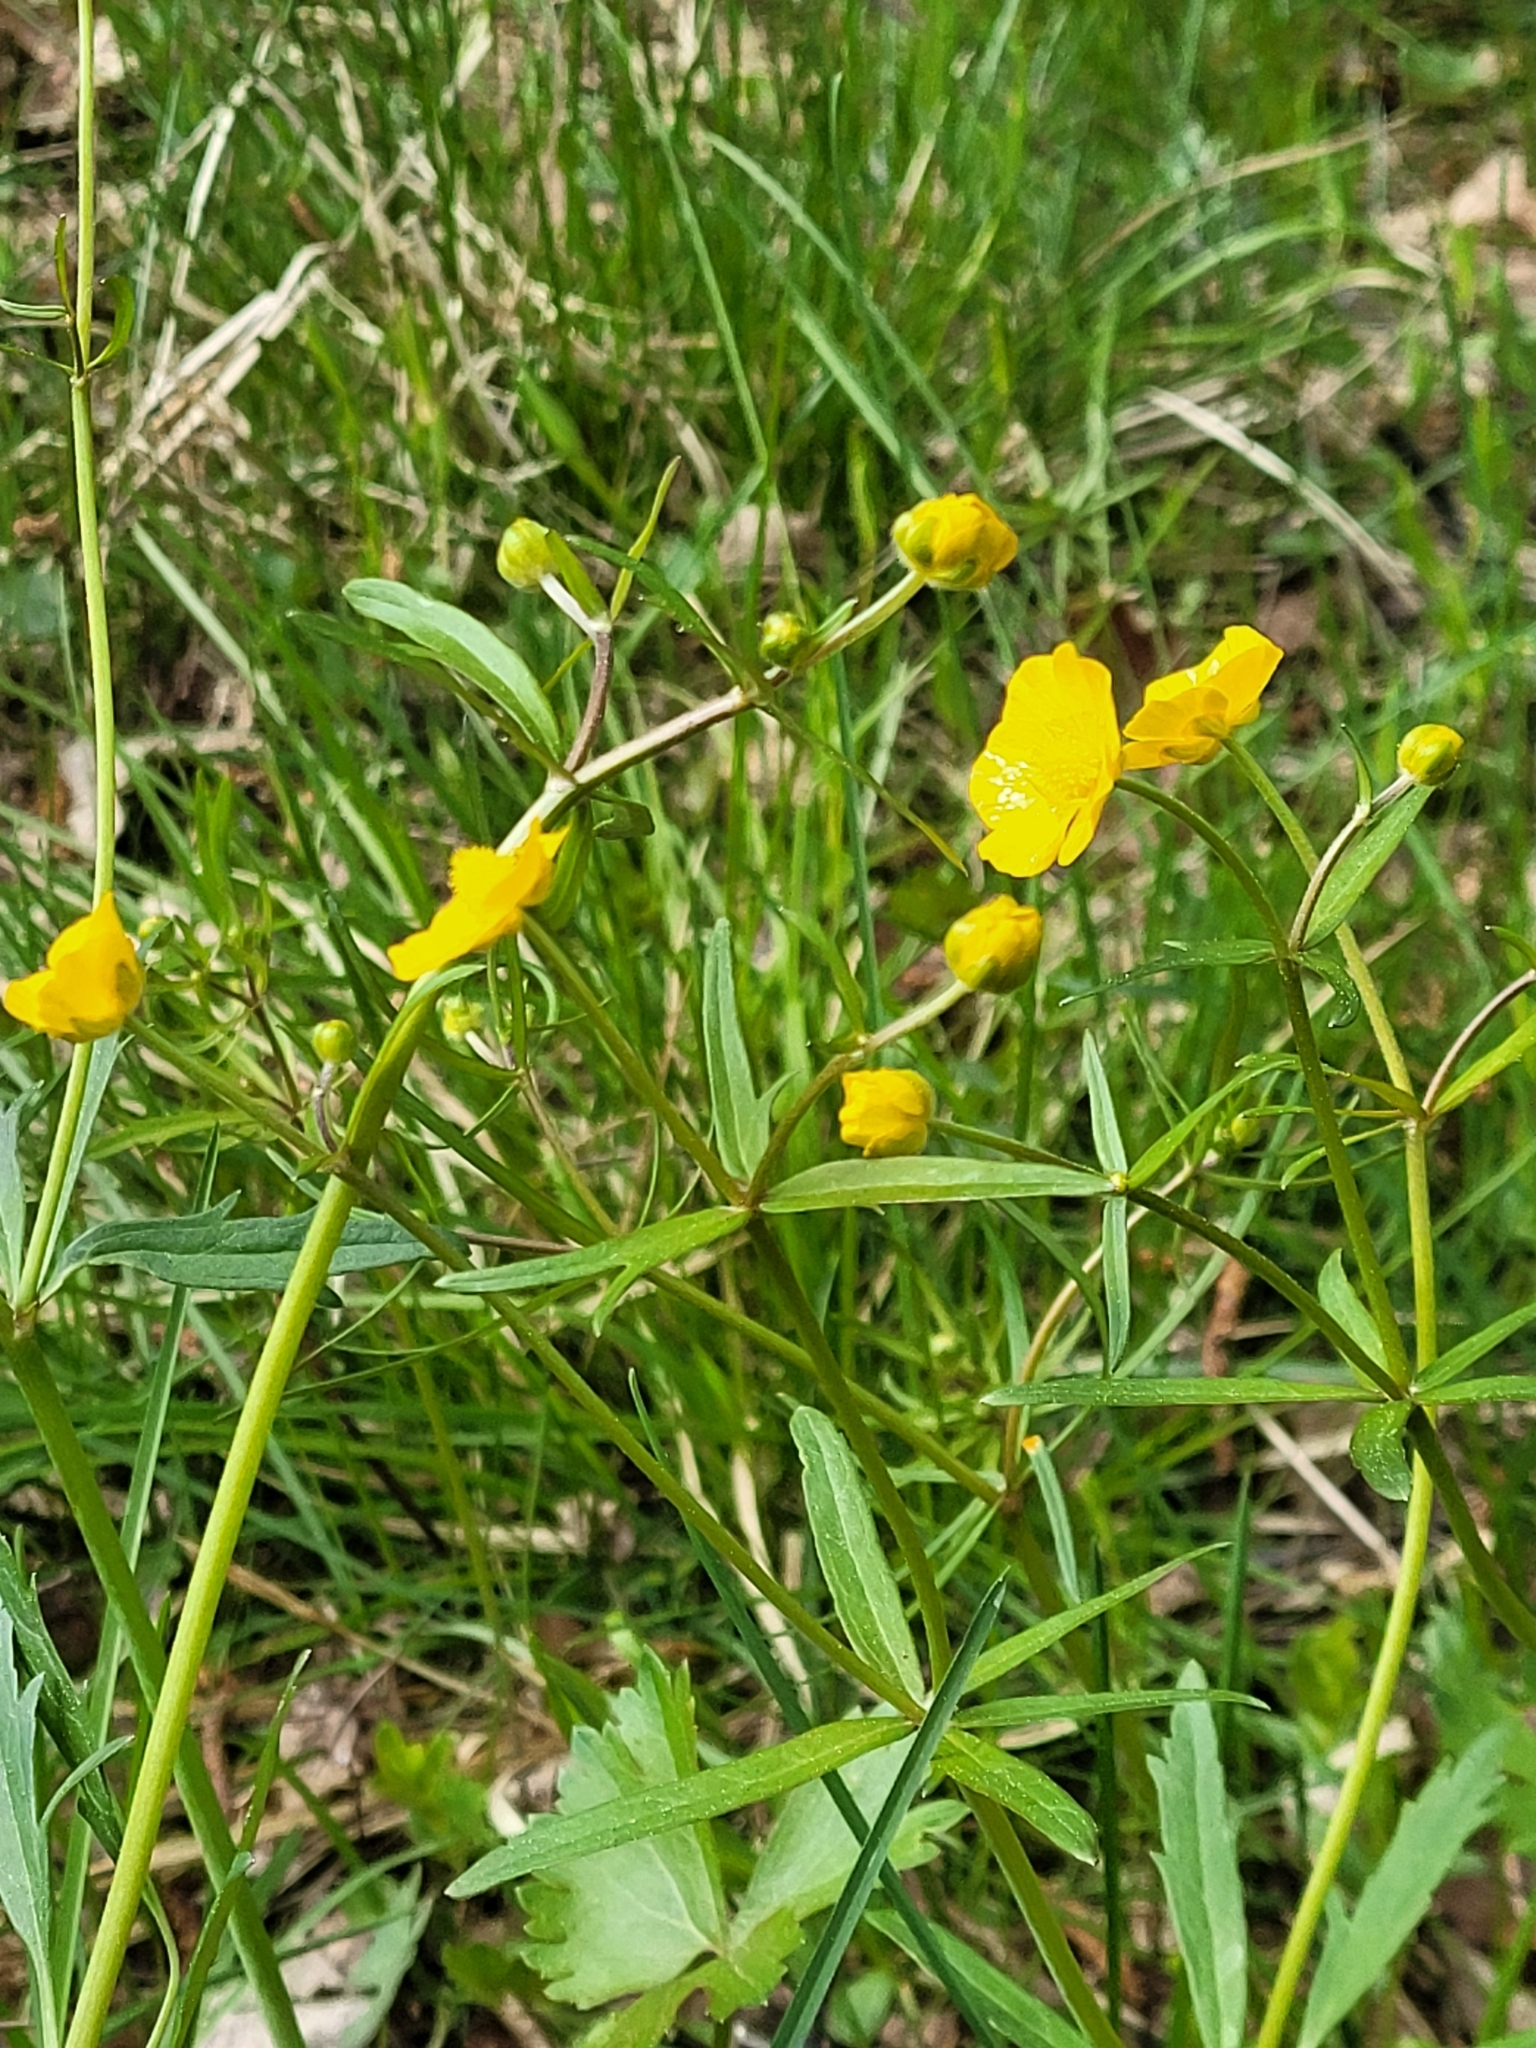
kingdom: Plantae
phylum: Tracheophyta
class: Magnoliopsida
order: Ranunculales
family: Ranunculaceae
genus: Ranunculus
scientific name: Ranunculus auricomus
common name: Goldilocks buttercup
